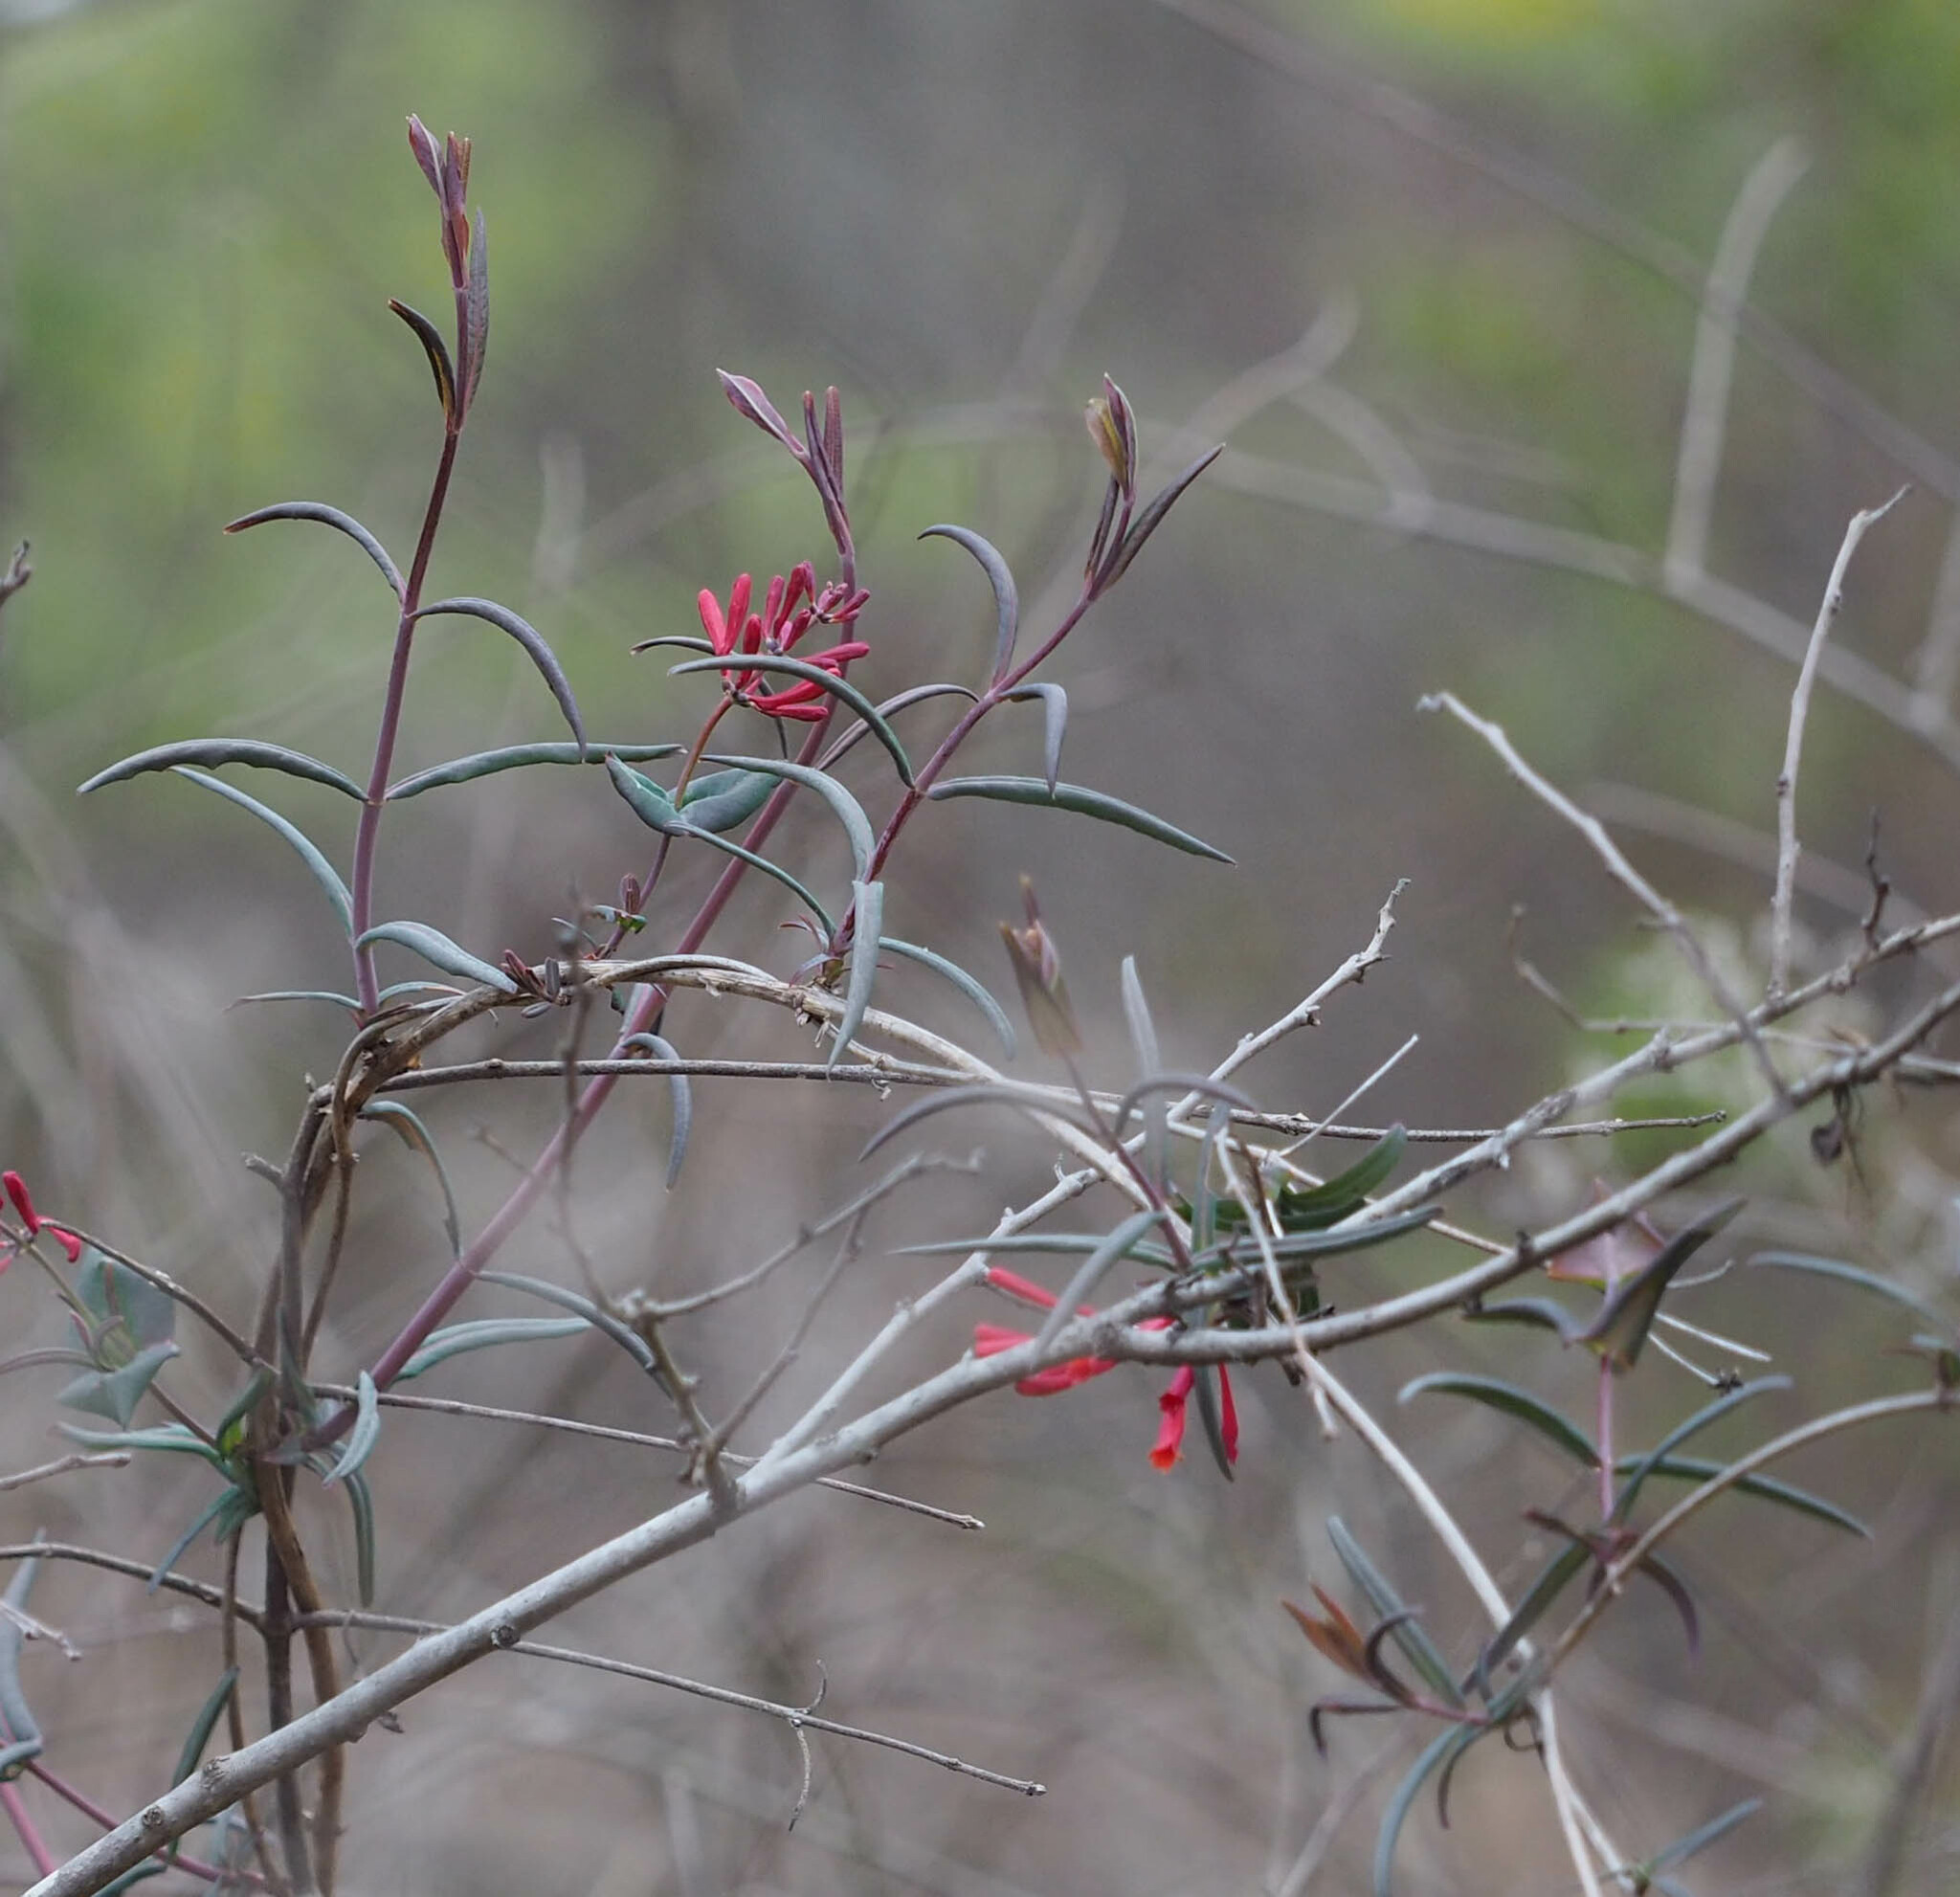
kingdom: Plantae
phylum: Tracheophyta
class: Magnoliopsida
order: Dipsacales
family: Caprifoliaceae
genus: Lonicera
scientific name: Lonicera sempervirens
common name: Coral honeysuckle
